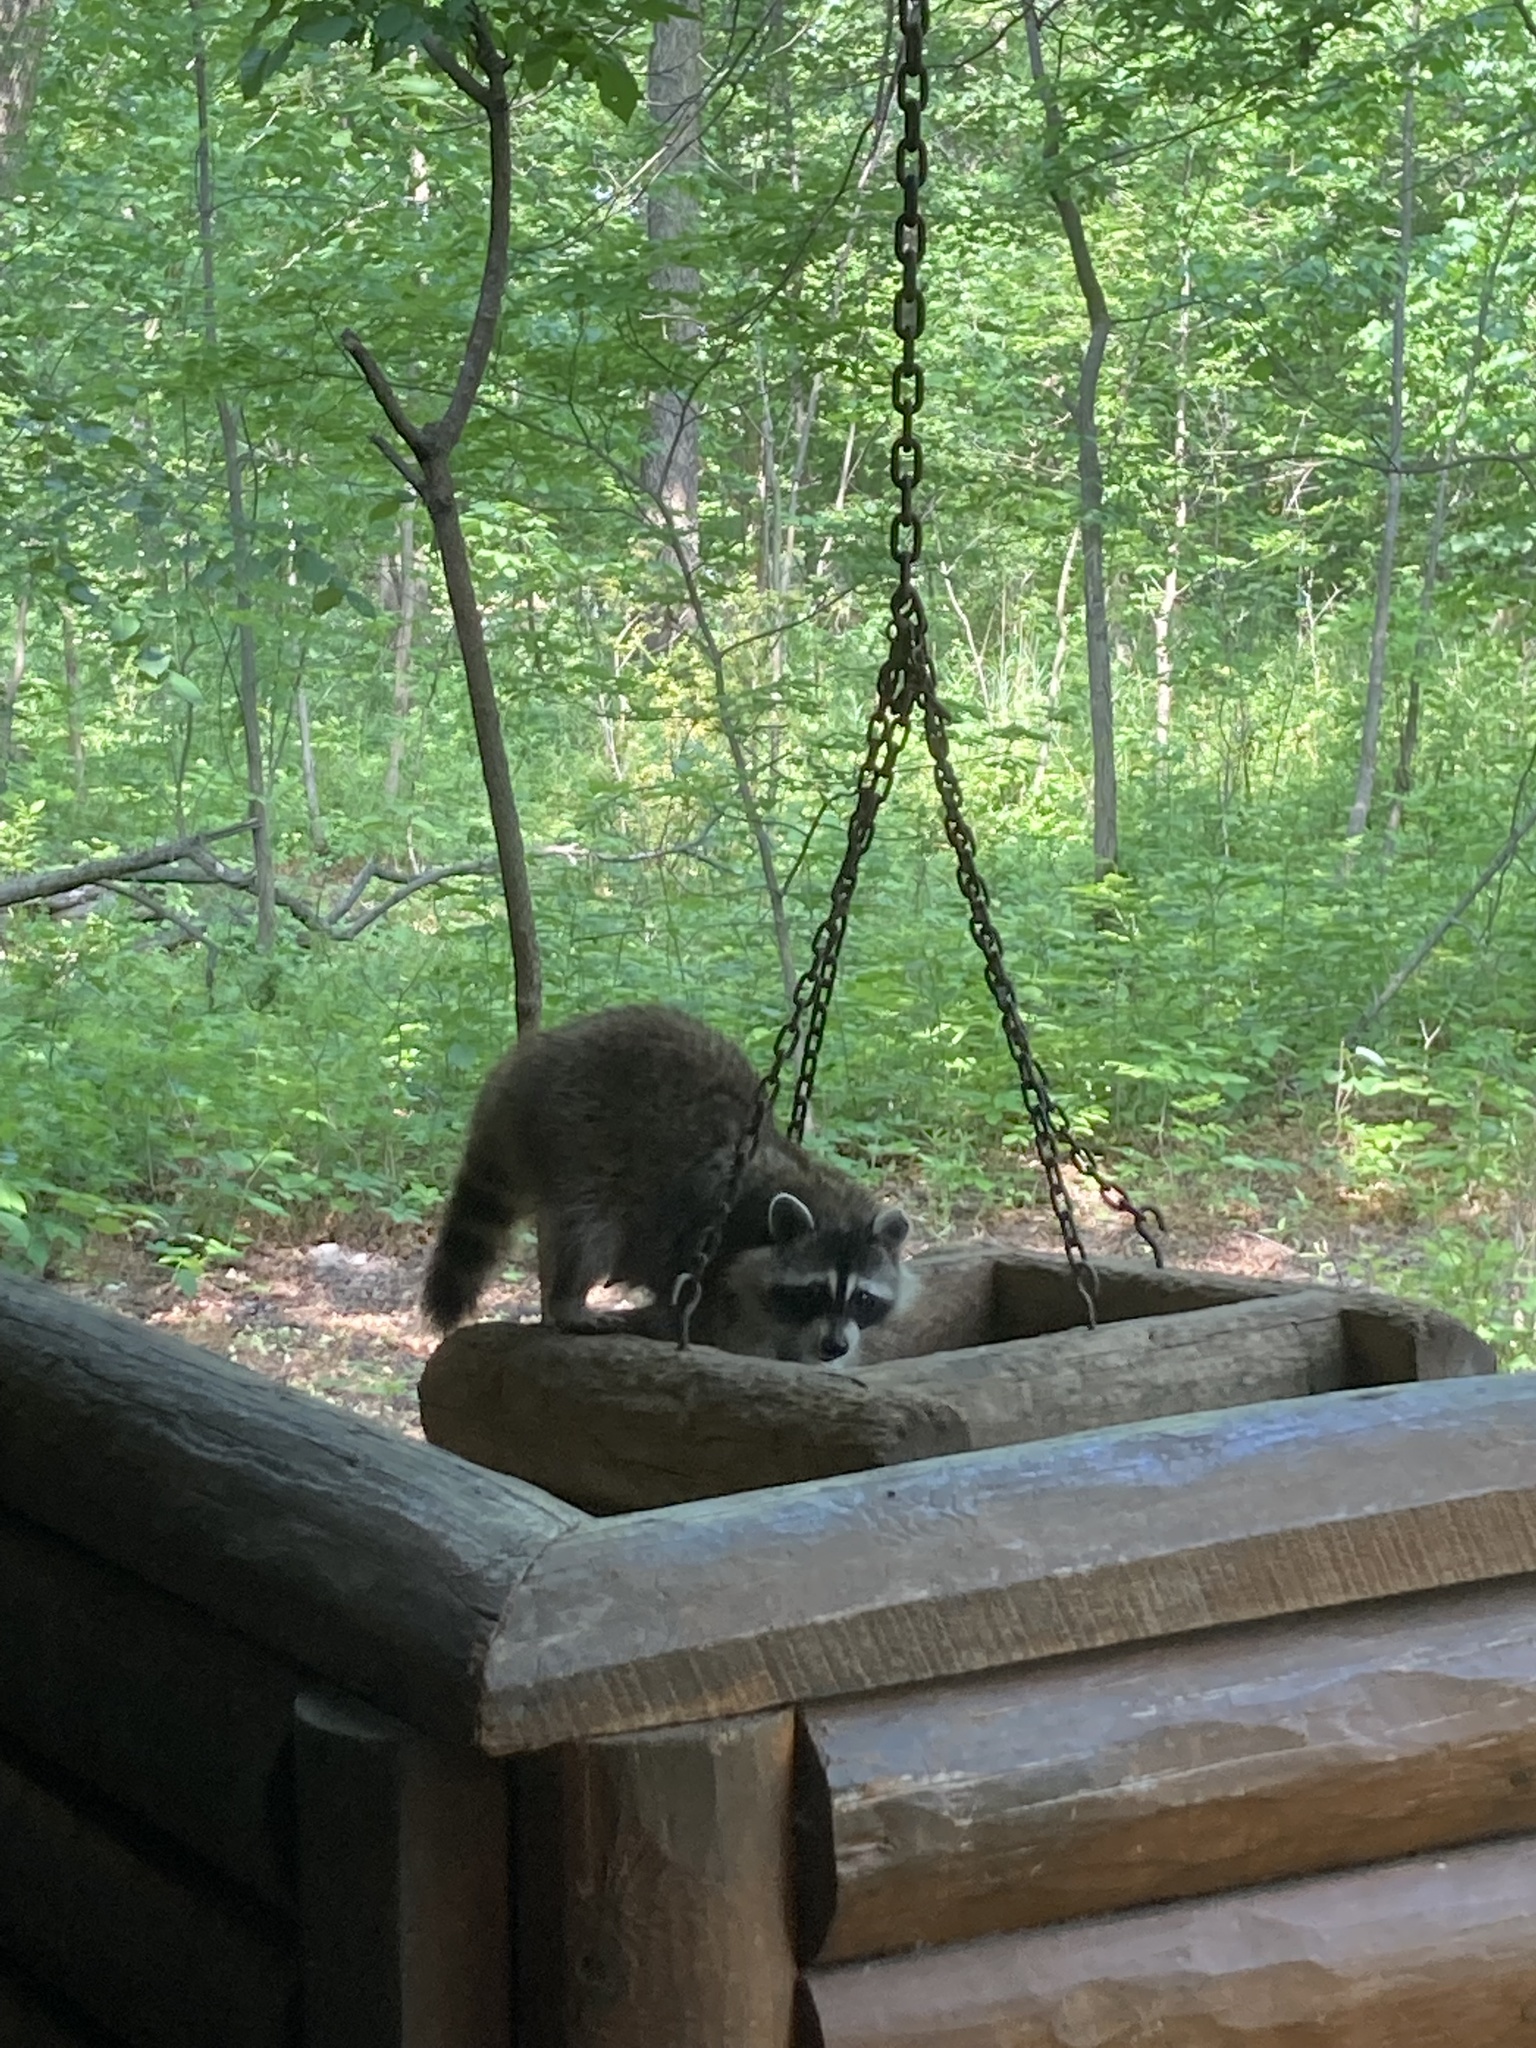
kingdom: Animalia
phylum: Chordata
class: Mammalia
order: Carnivora
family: Procyonidae
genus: Procyon
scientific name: Procyon lotor
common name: Raccoon
